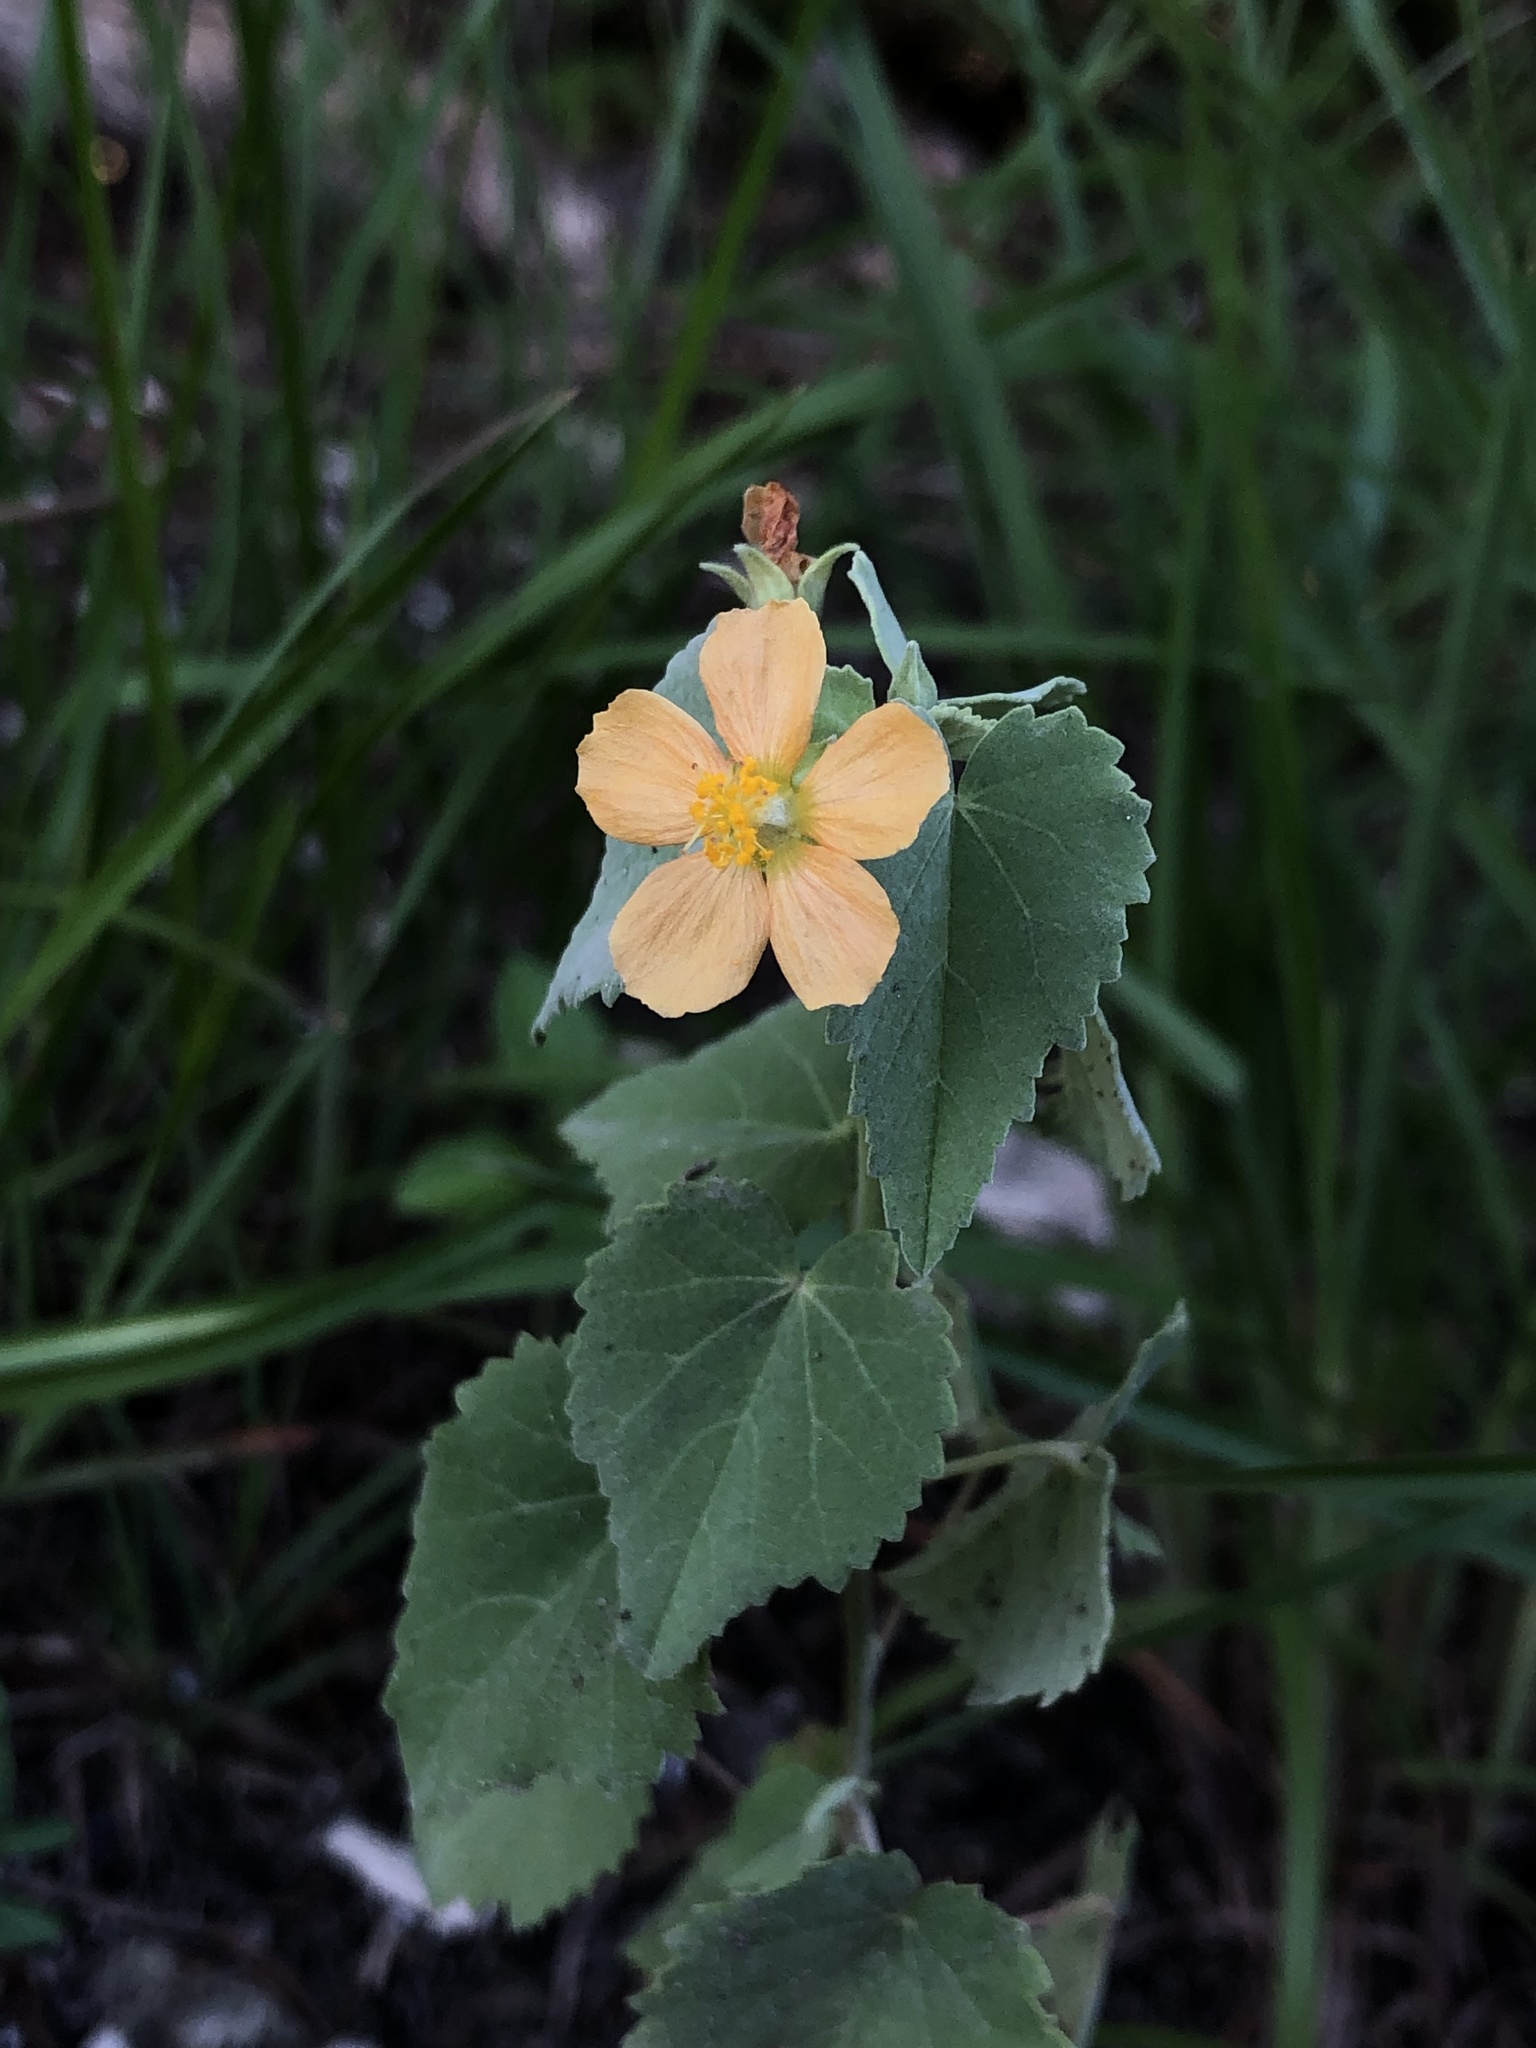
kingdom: Plantae
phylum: Tracheophyta
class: Magnoliopsida
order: Malvales
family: Malvaceae
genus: Abutilon
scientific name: Abutilon fruticosum
